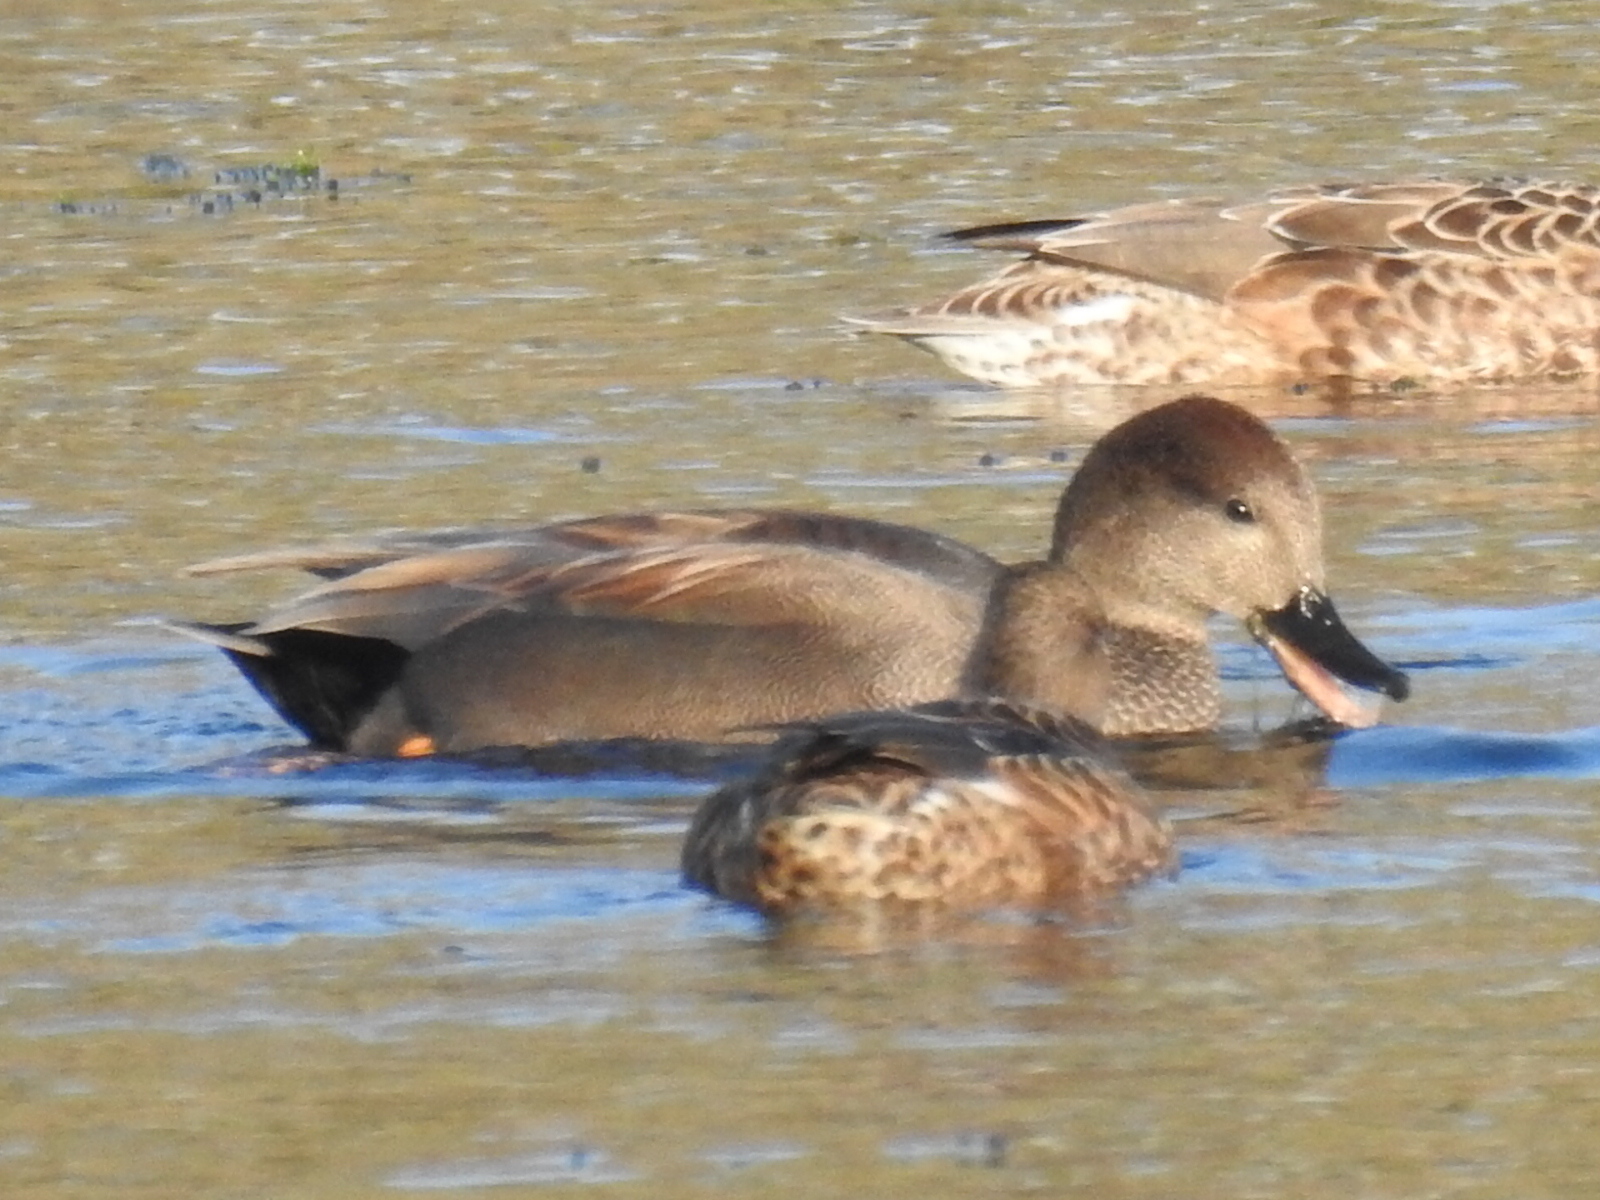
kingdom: Animalia
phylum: Chordata
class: Aves
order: Anseriformes
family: Anatidae
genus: Mareca
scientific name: Mareca strepera
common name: Gadwall
